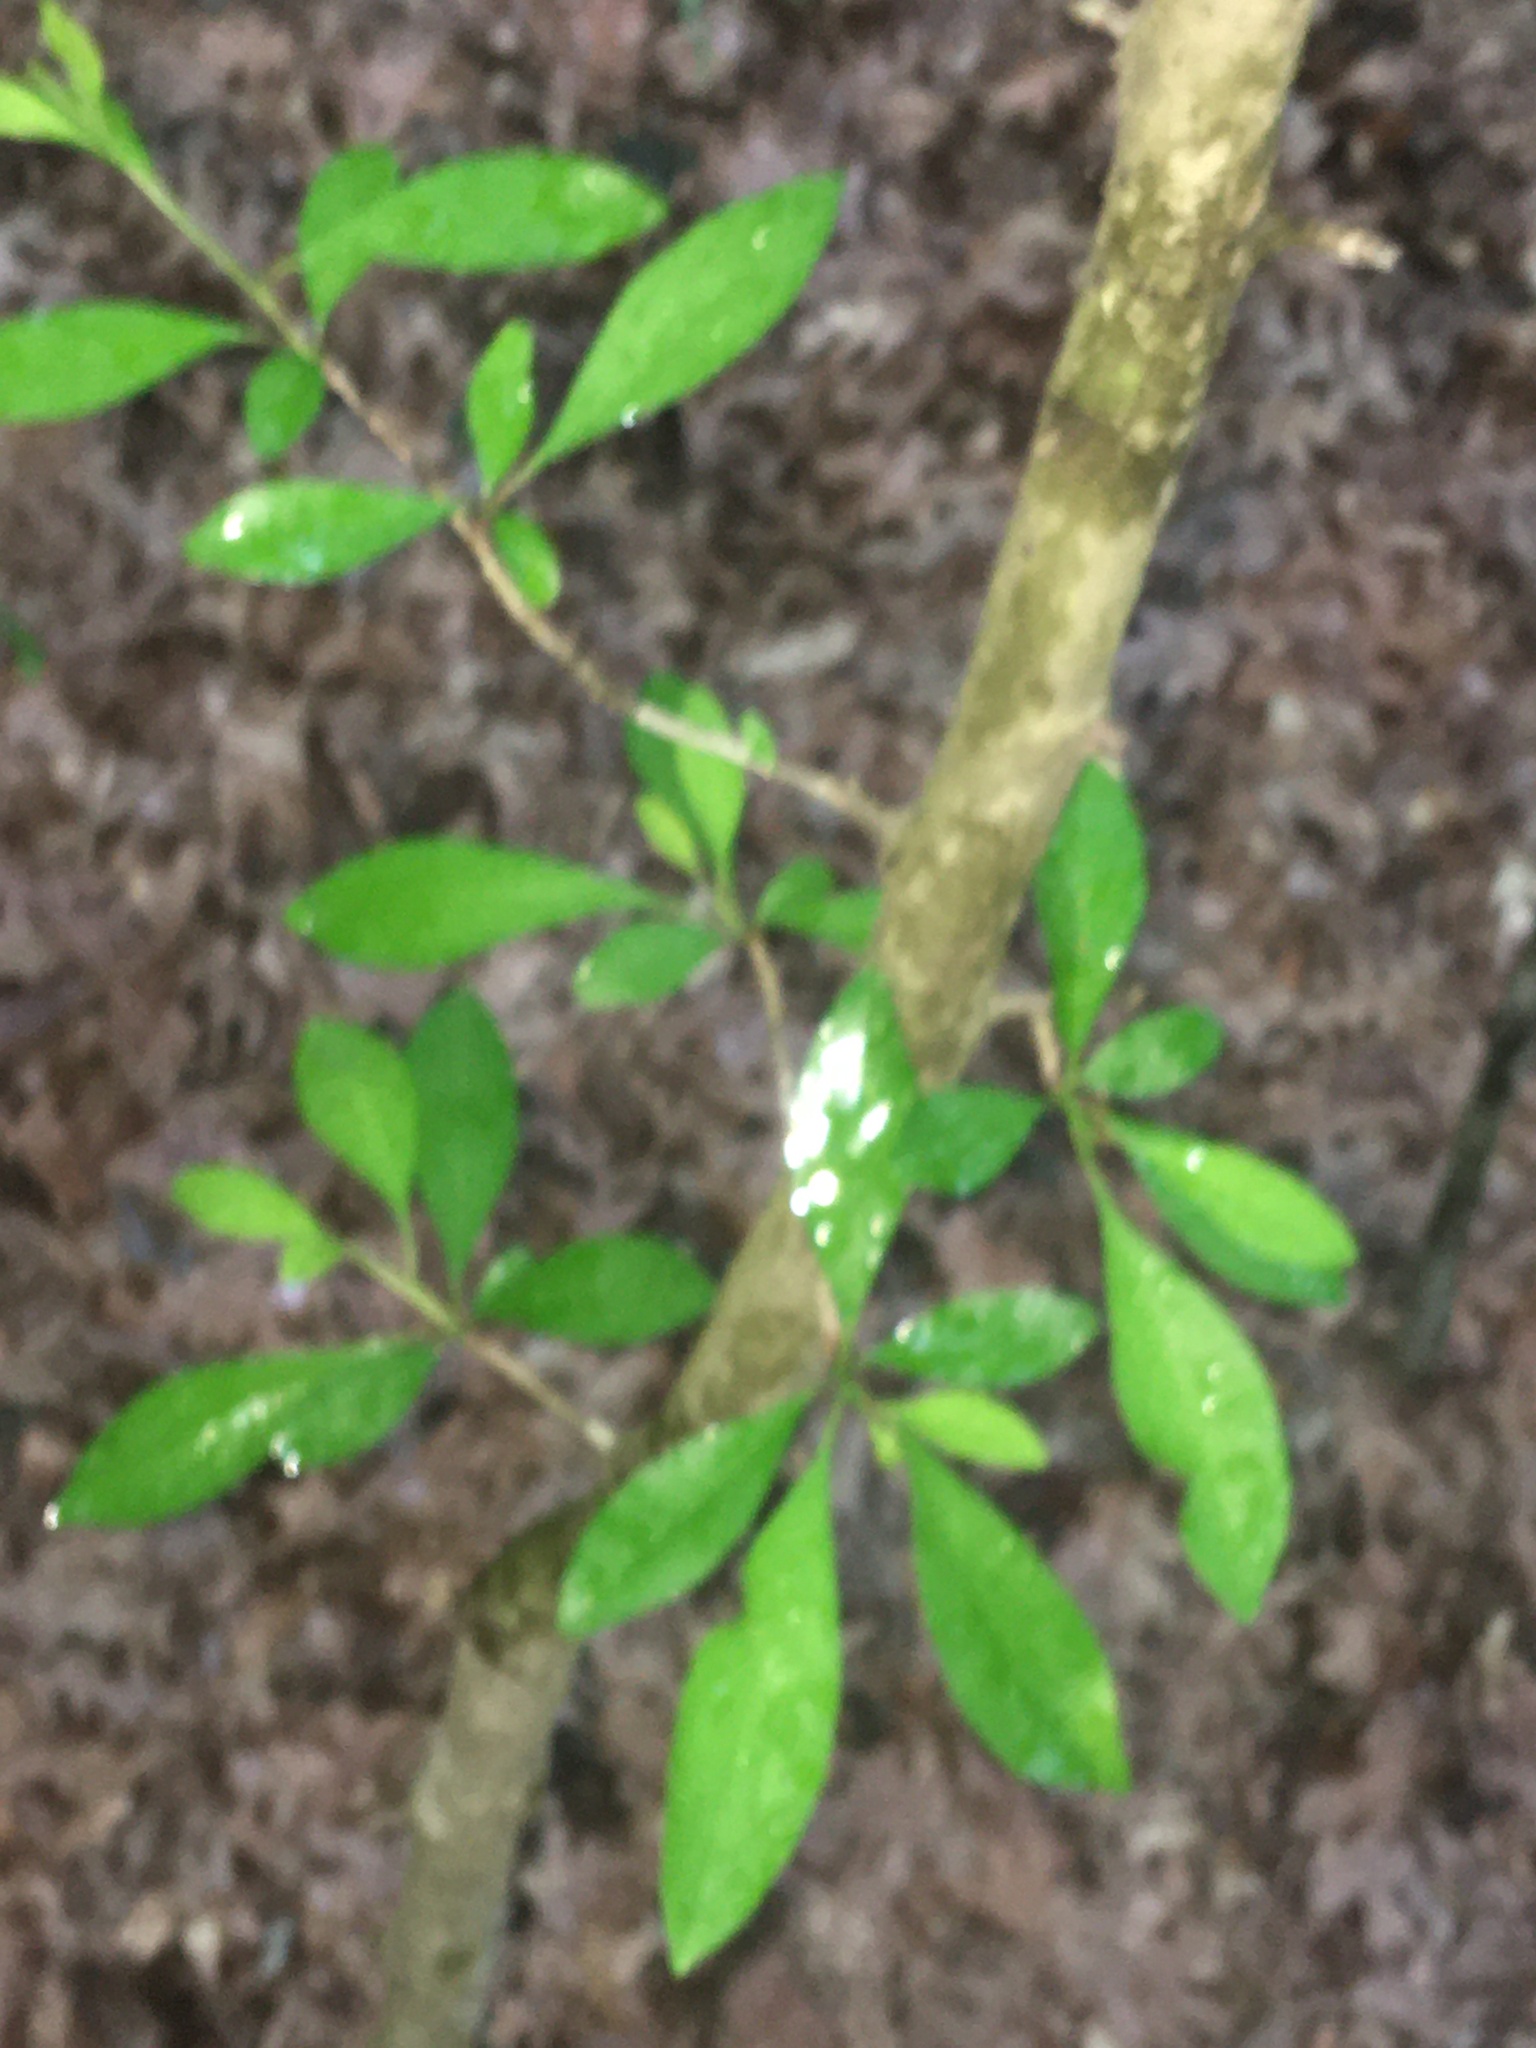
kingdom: Plantae
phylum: Tracheophyta
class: Magnoliopsida
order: Aquifoliales
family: Aquifoliaceae
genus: Ilex
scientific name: Ilex decidua
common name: Possum-haw
